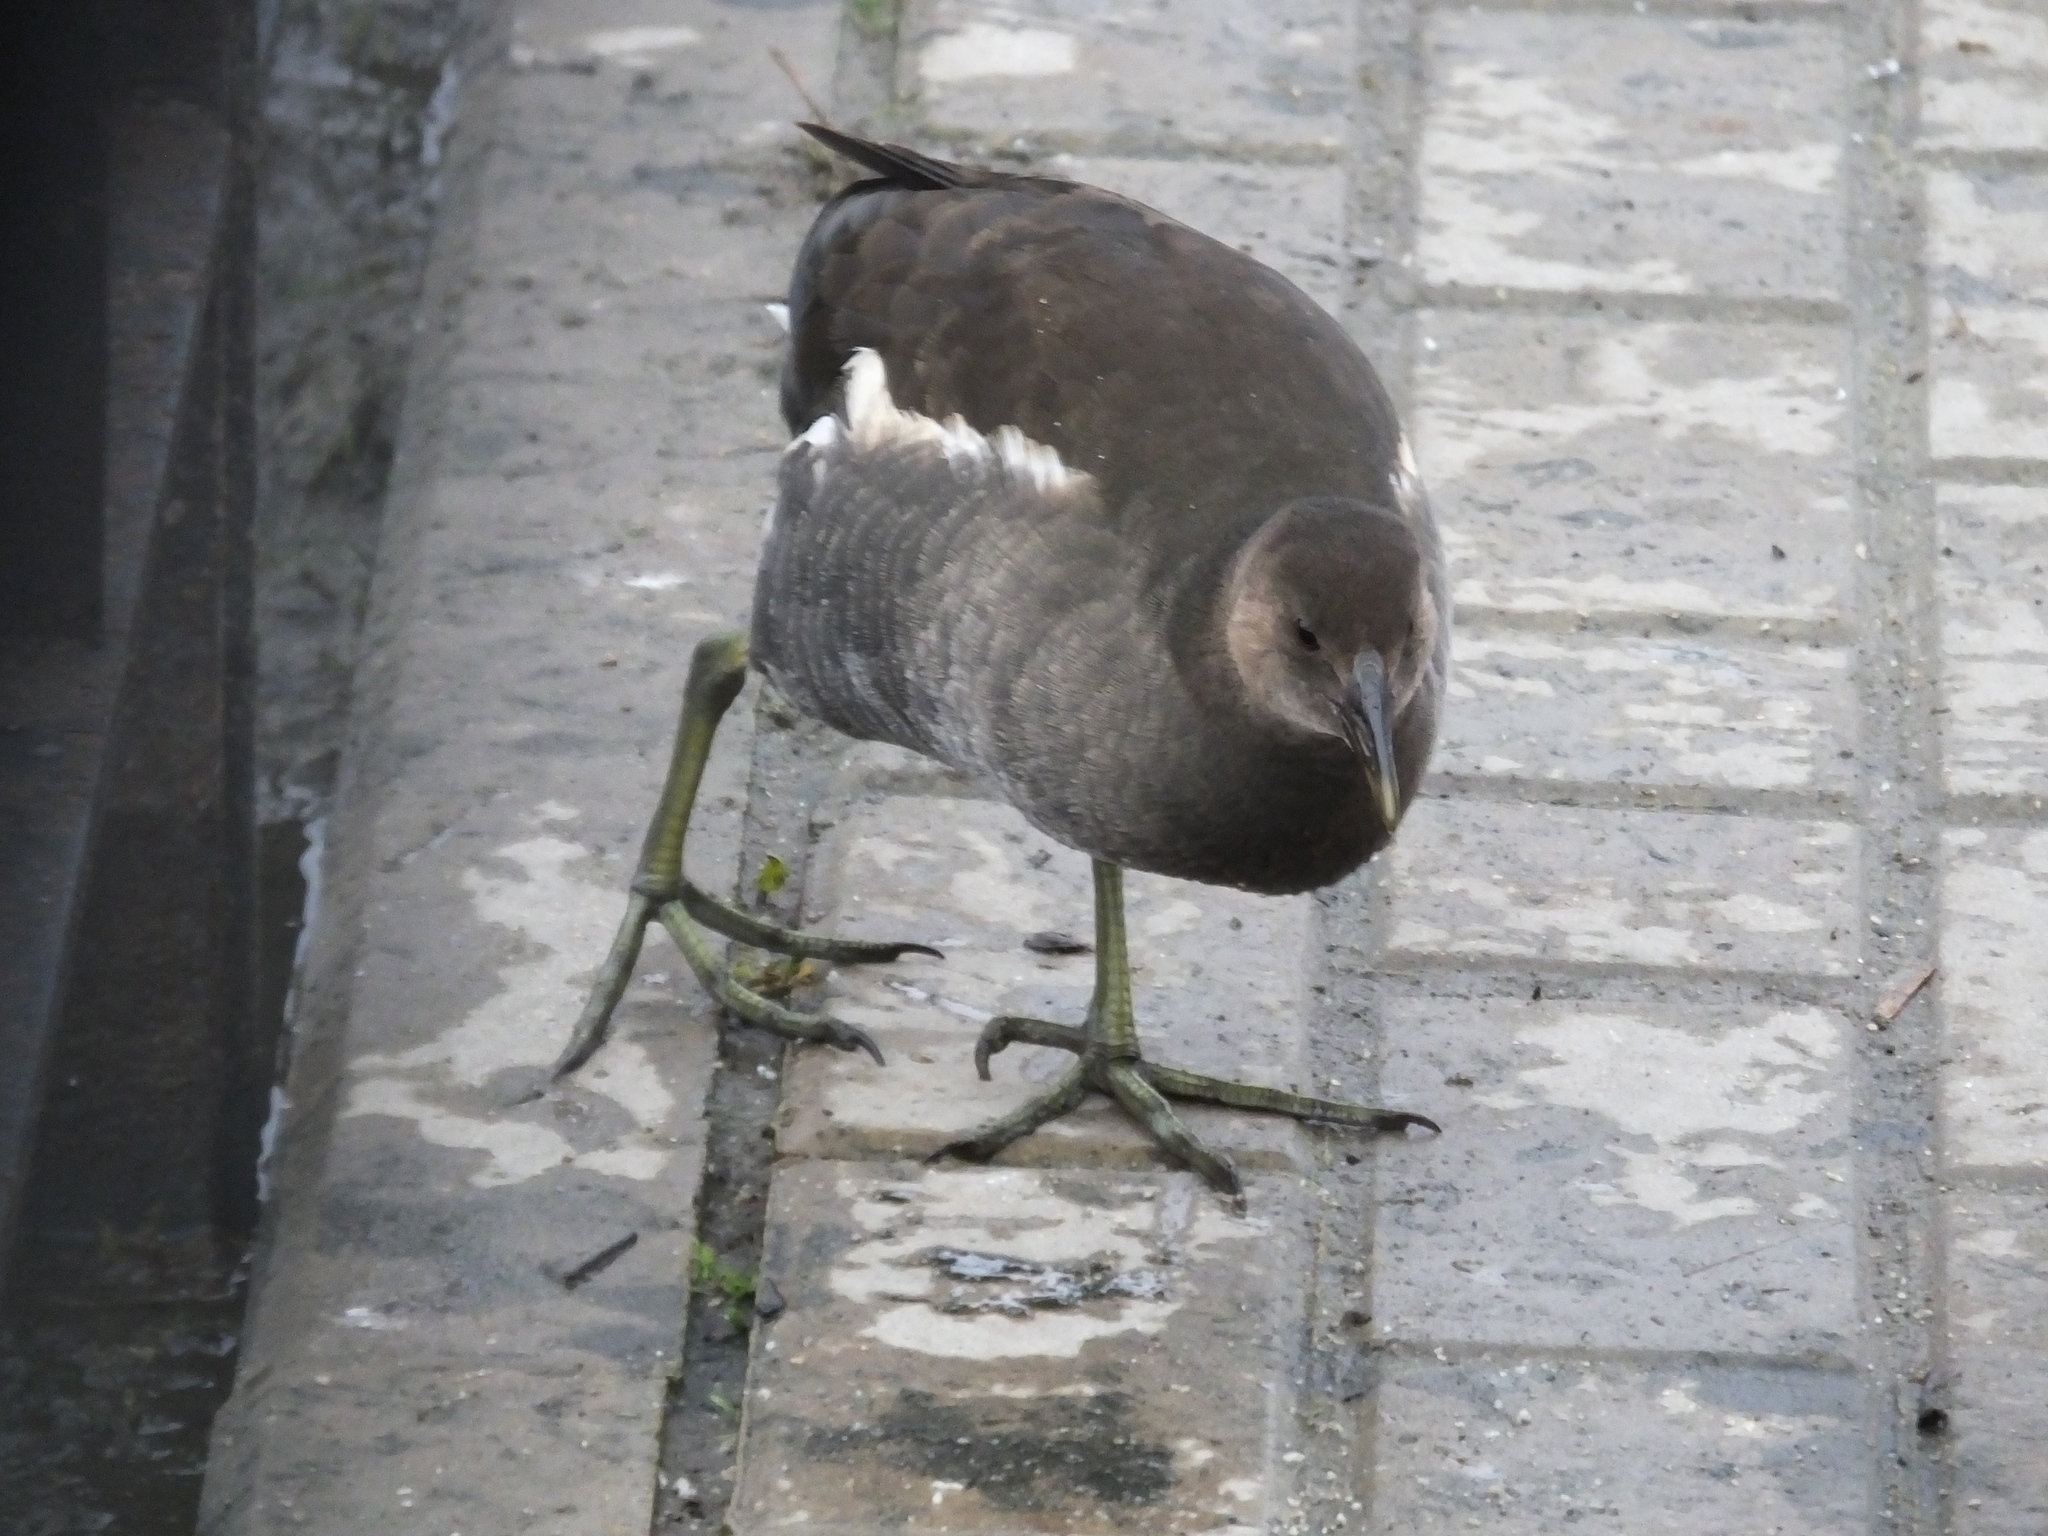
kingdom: Animalia
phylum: Chordata
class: Aves
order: Gruiformes
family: Rallidae
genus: Gallinula
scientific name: Gallinula chloropus
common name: Common moorhen
